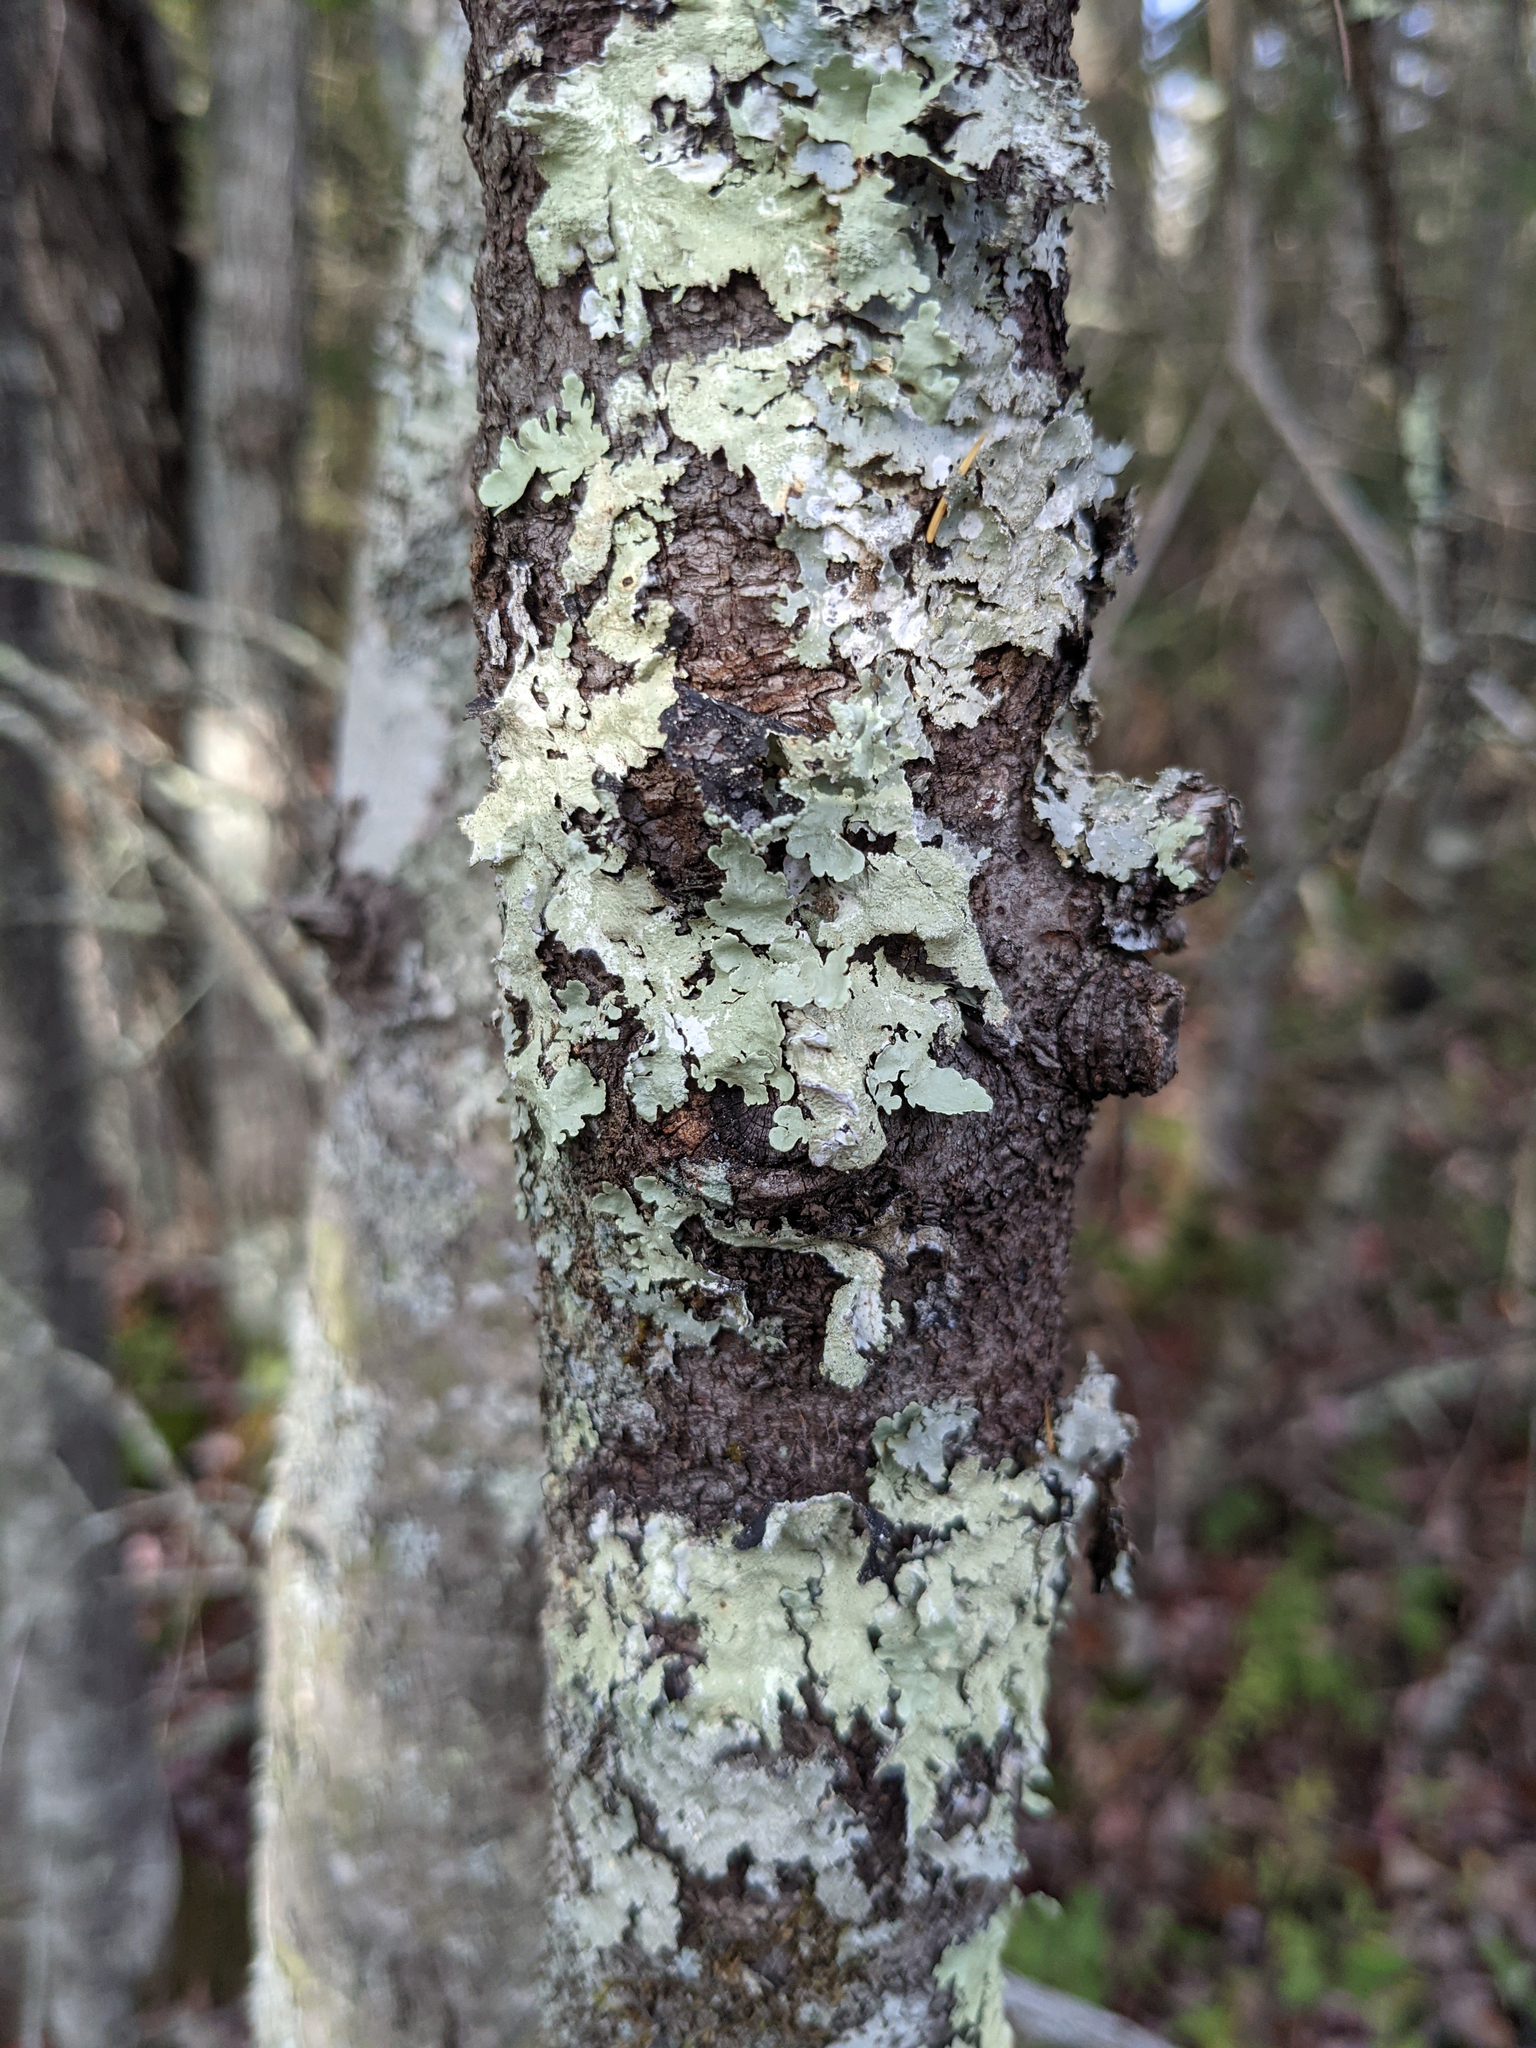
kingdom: Fungi
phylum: Ascomycota
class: Lecanoromycetes
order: Lecanorales
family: Parmeliaceae
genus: Flavoparmelia
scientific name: Flavoparmelia caperata
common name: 40-mile per hour lichen
